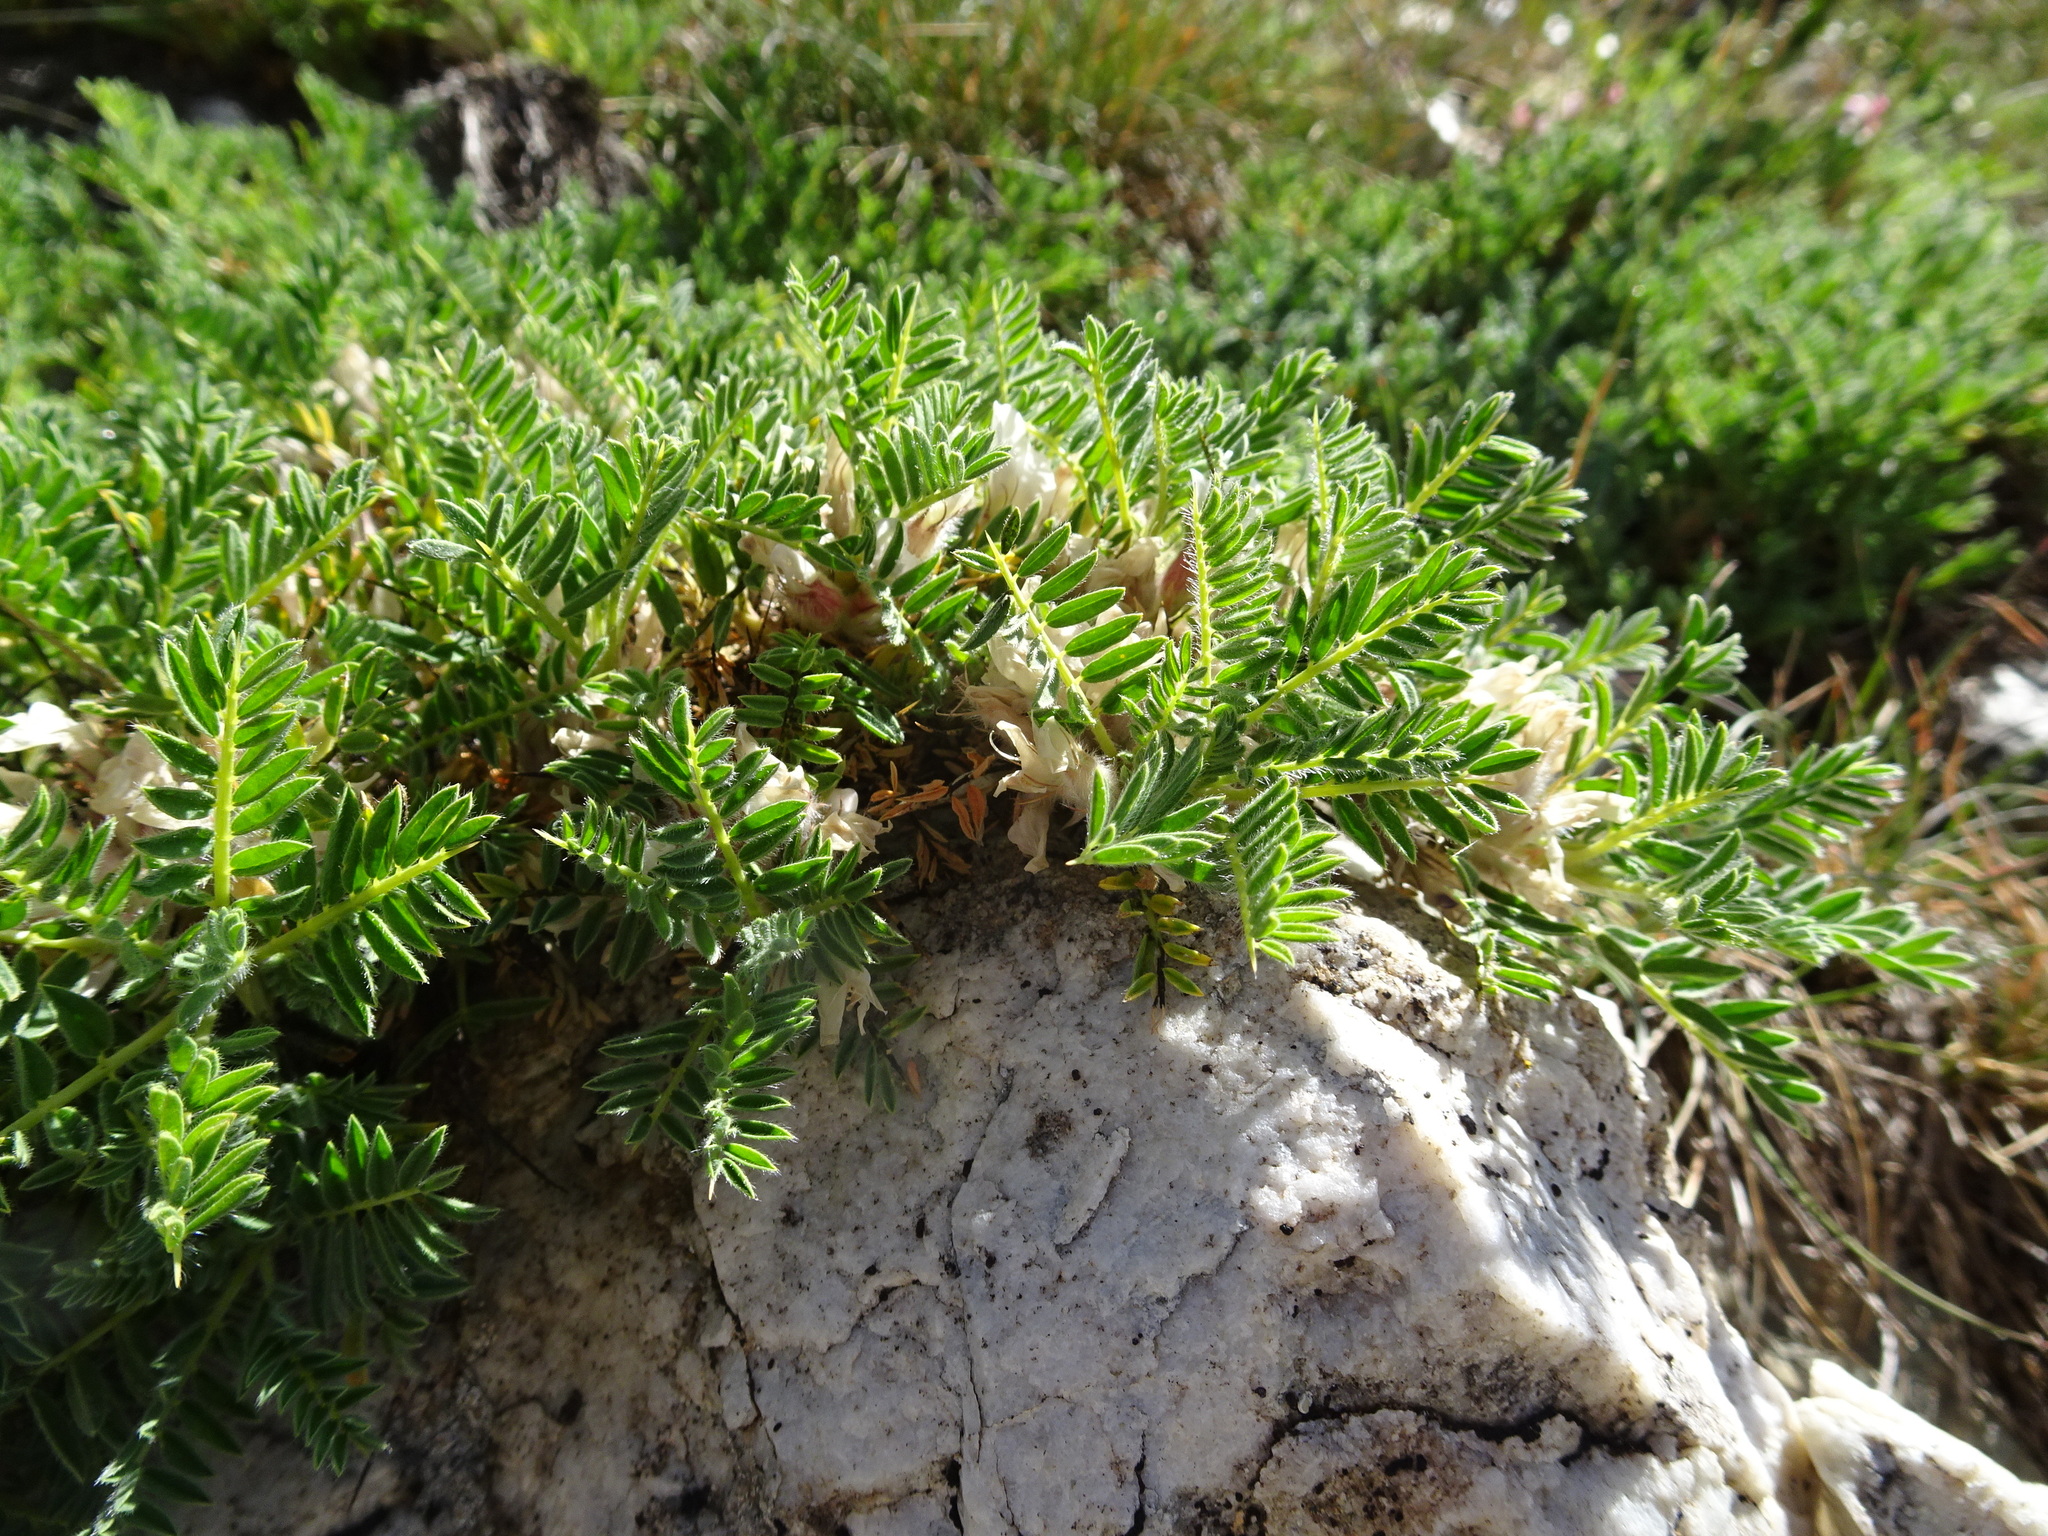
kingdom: Plantae
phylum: Tracheophyta
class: Magnoliopsida
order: Fabales
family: Fabaceae
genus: Astragalus
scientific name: Astragalus sempervirens
